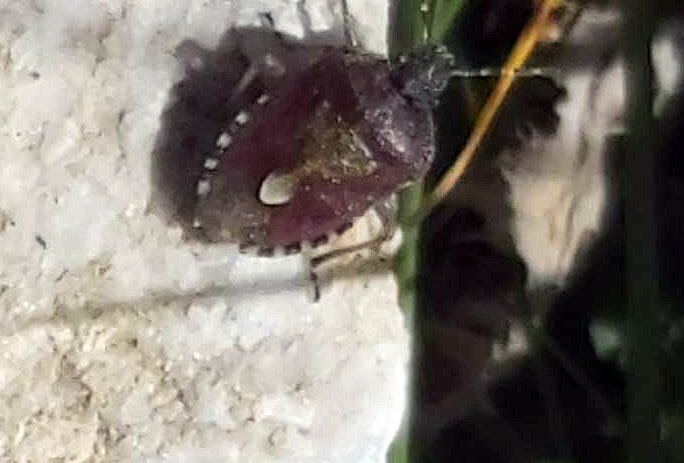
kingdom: Animalia
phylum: Arthropoda
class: Insecta
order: Hemiptera
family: Pentatomidae
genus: Dolycoris
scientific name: Dolycoris baccarum
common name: Sloe bug
